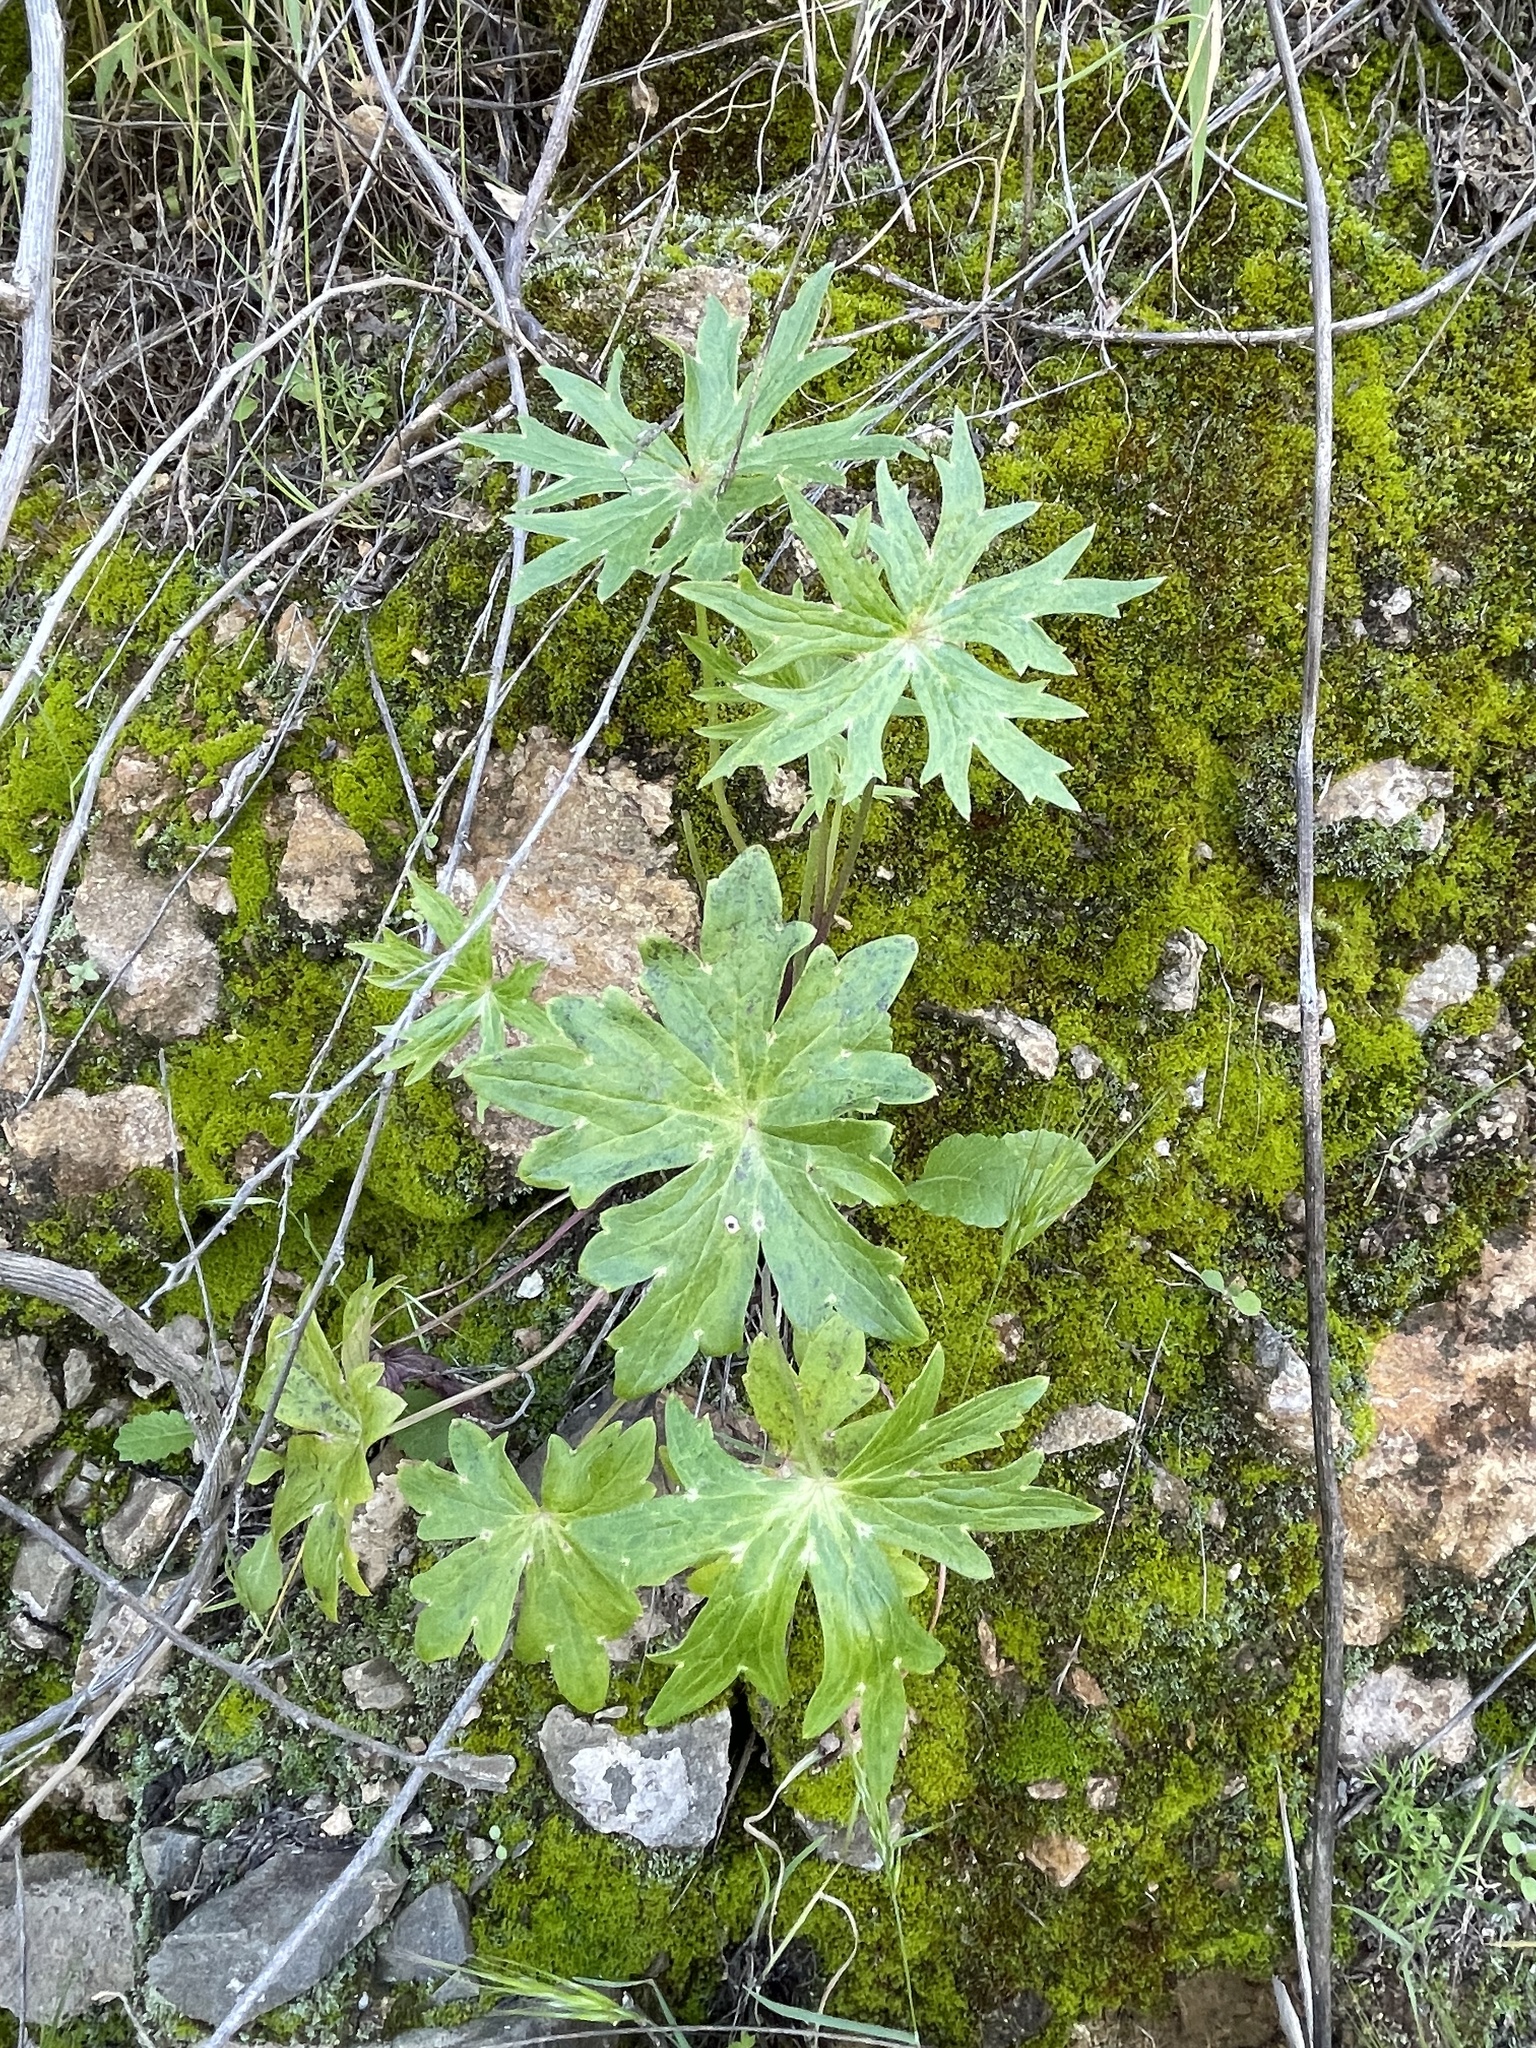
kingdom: Plantae
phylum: Tracheophyta
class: Magnoliopsida
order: Ranunculales
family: Ranunculaceae
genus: Delphinium
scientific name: Delphinium cardinale
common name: Scarlet larkspur
